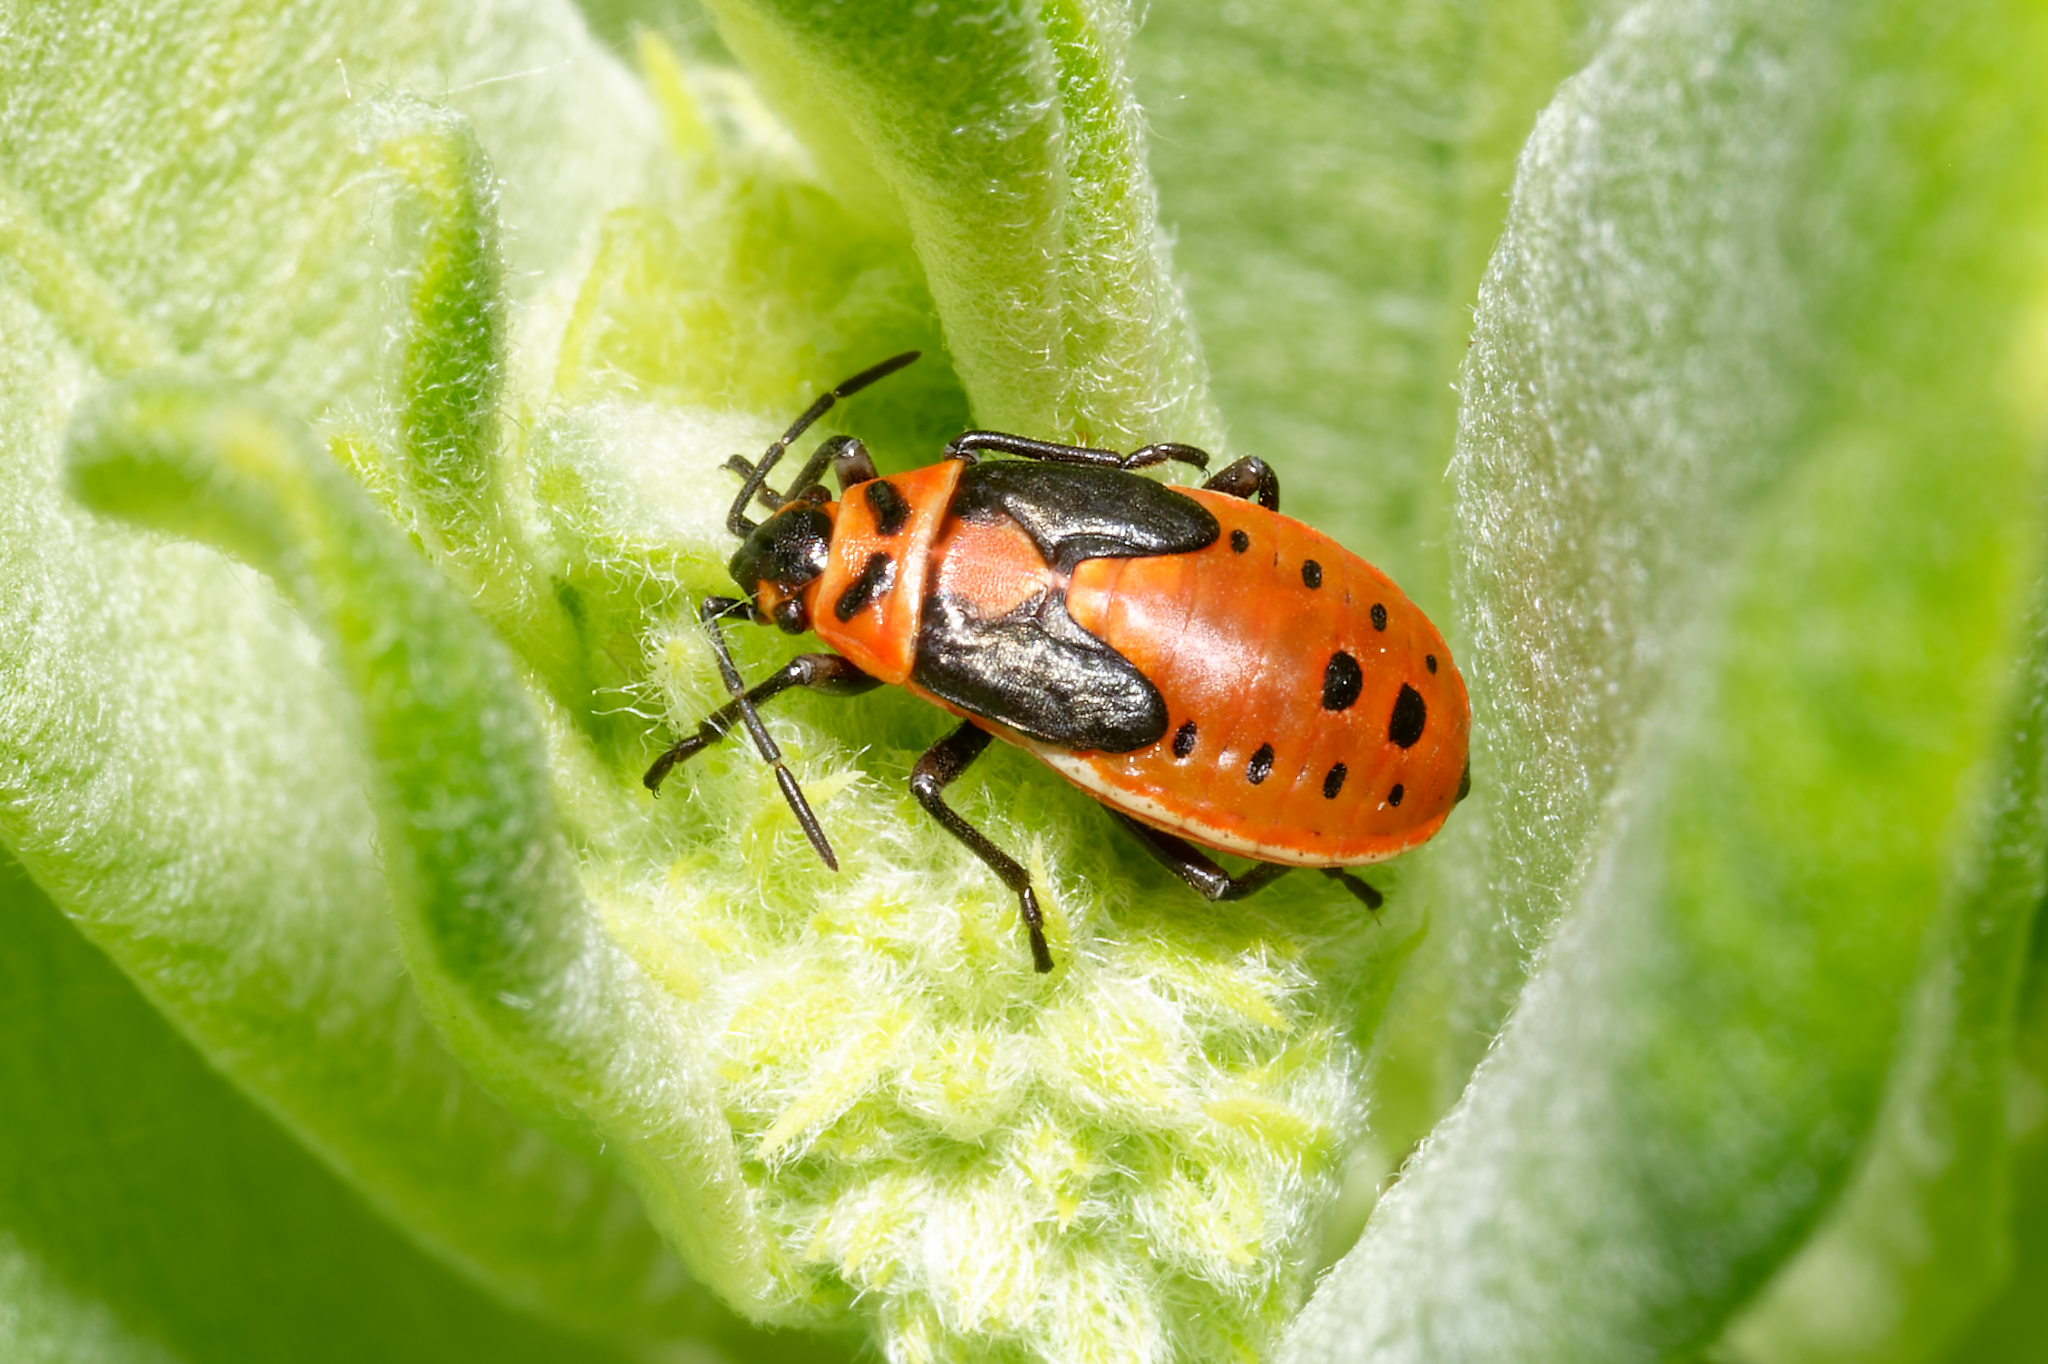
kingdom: Animalia
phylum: Arthropoda
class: Insecta
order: Hemiptera
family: Lygaeidae
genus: Lygaeus
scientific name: Lygaeus kalmii
